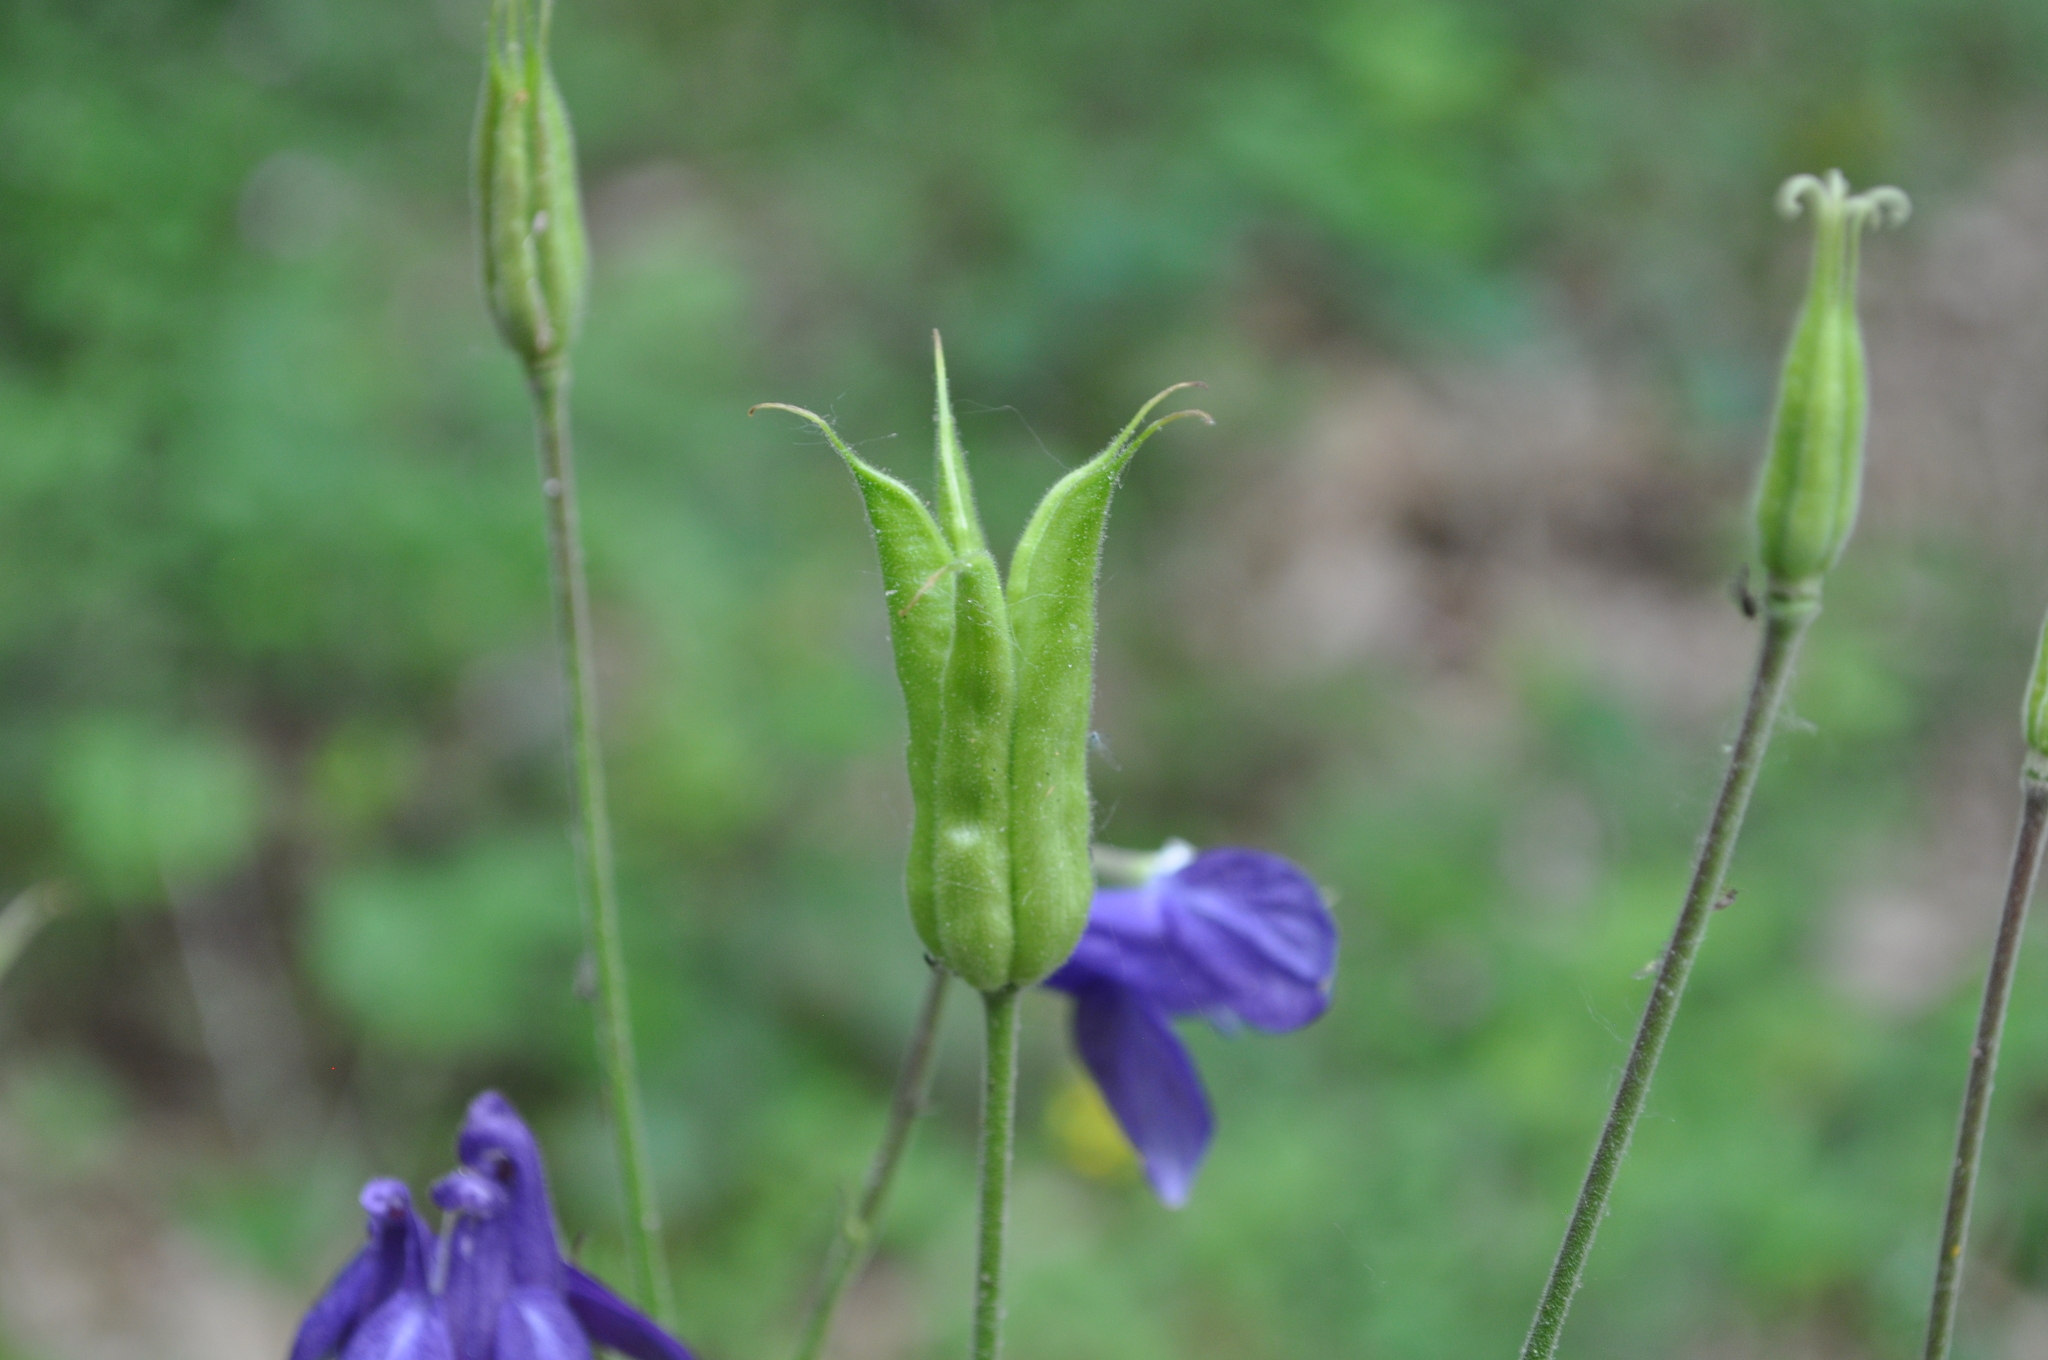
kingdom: Plantae
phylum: Tracheophyta
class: Magnoliopsida
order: Ranunculales
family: Ranunculaceae
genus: Aquilegia
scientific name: Aquilegia vulgaris
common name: Columbine
